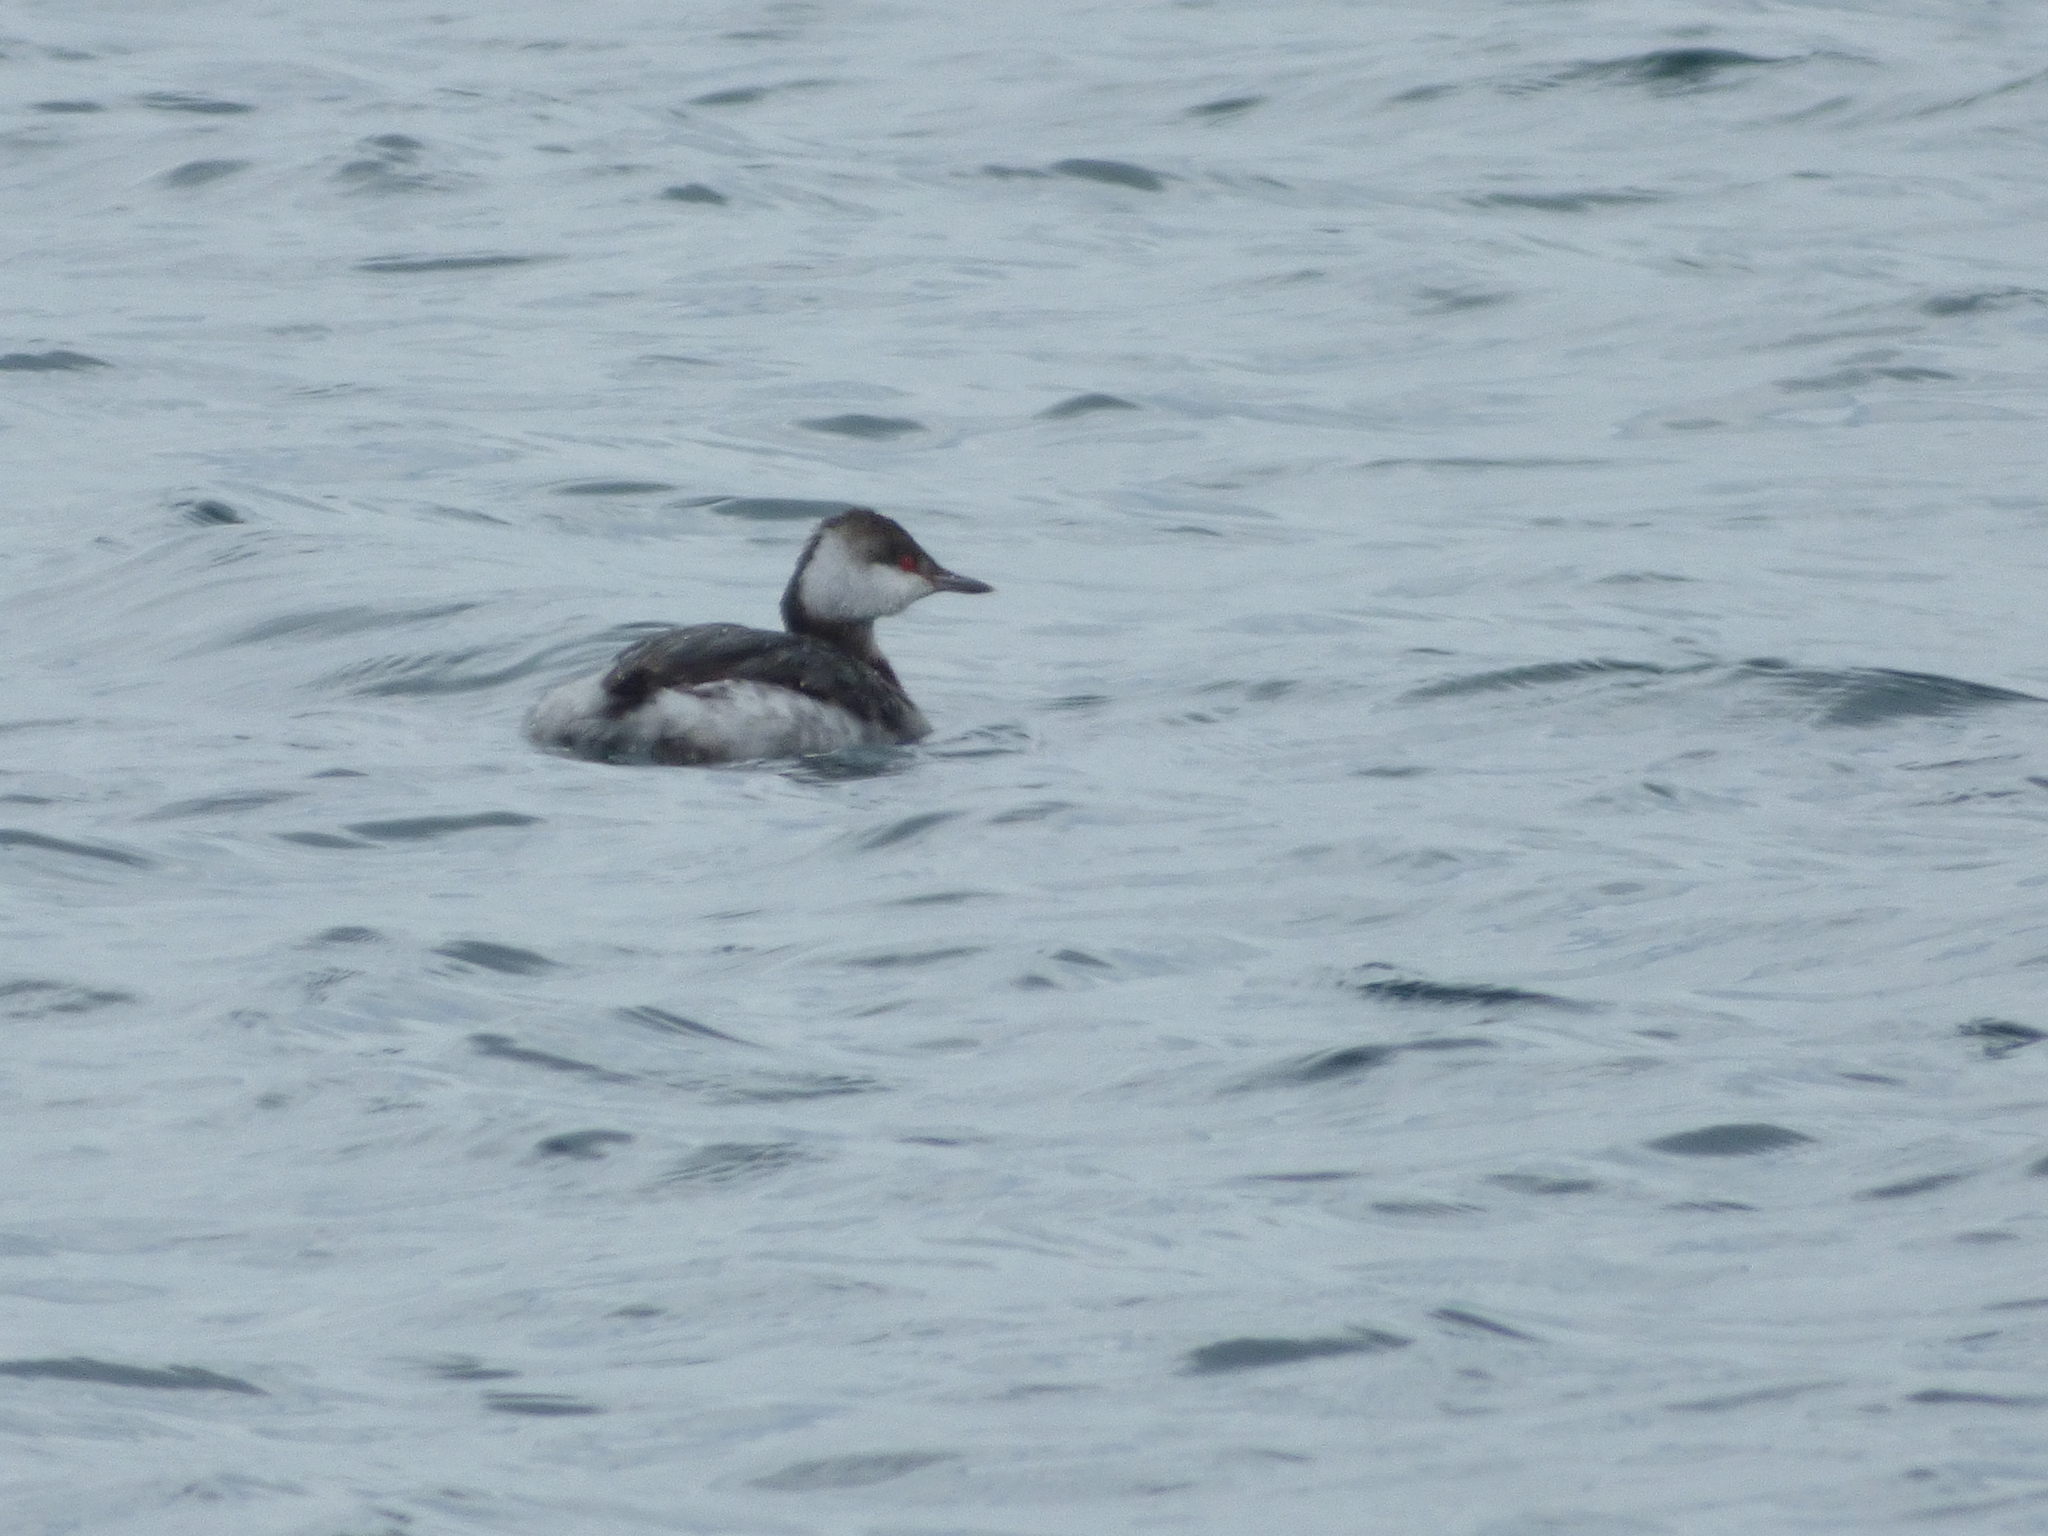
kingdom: Animalia
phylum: Chordata
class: Aves
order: Podicipediformes
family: Podicipedidae
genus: Podiceps
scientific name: Podiceps auritus
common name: Horned grebe
